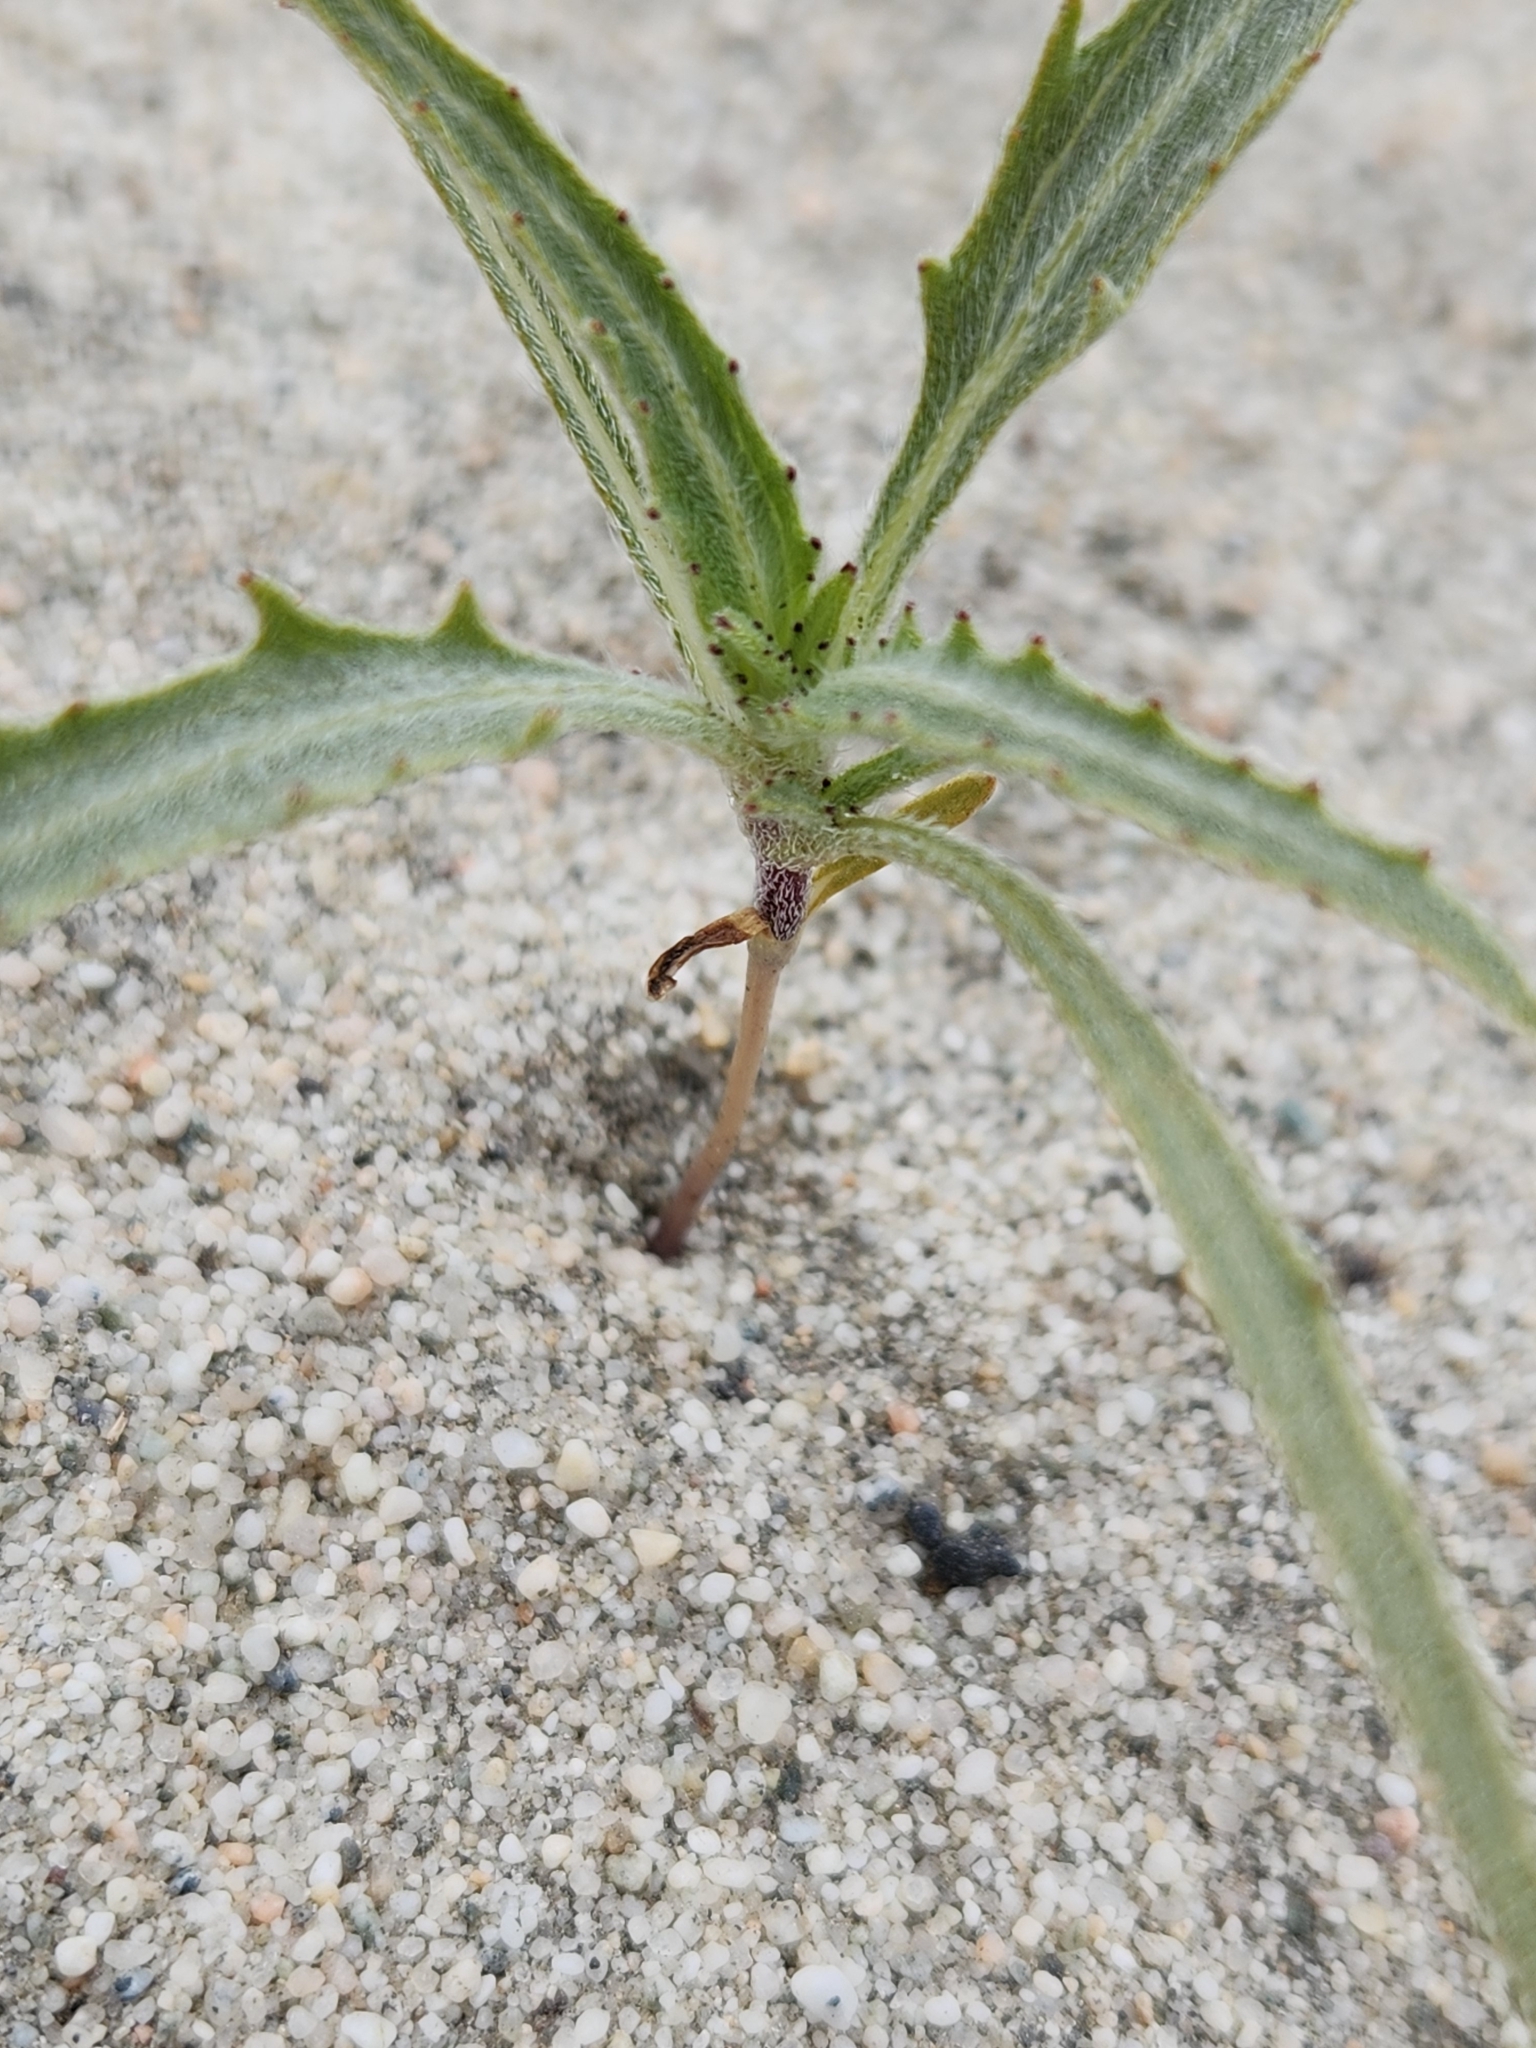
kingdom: Plantae
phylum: Tracheophyta
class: Magnoliopsida
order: Asterales
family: Asteraceae
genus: Dicoria
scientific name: Dicoria canescens
